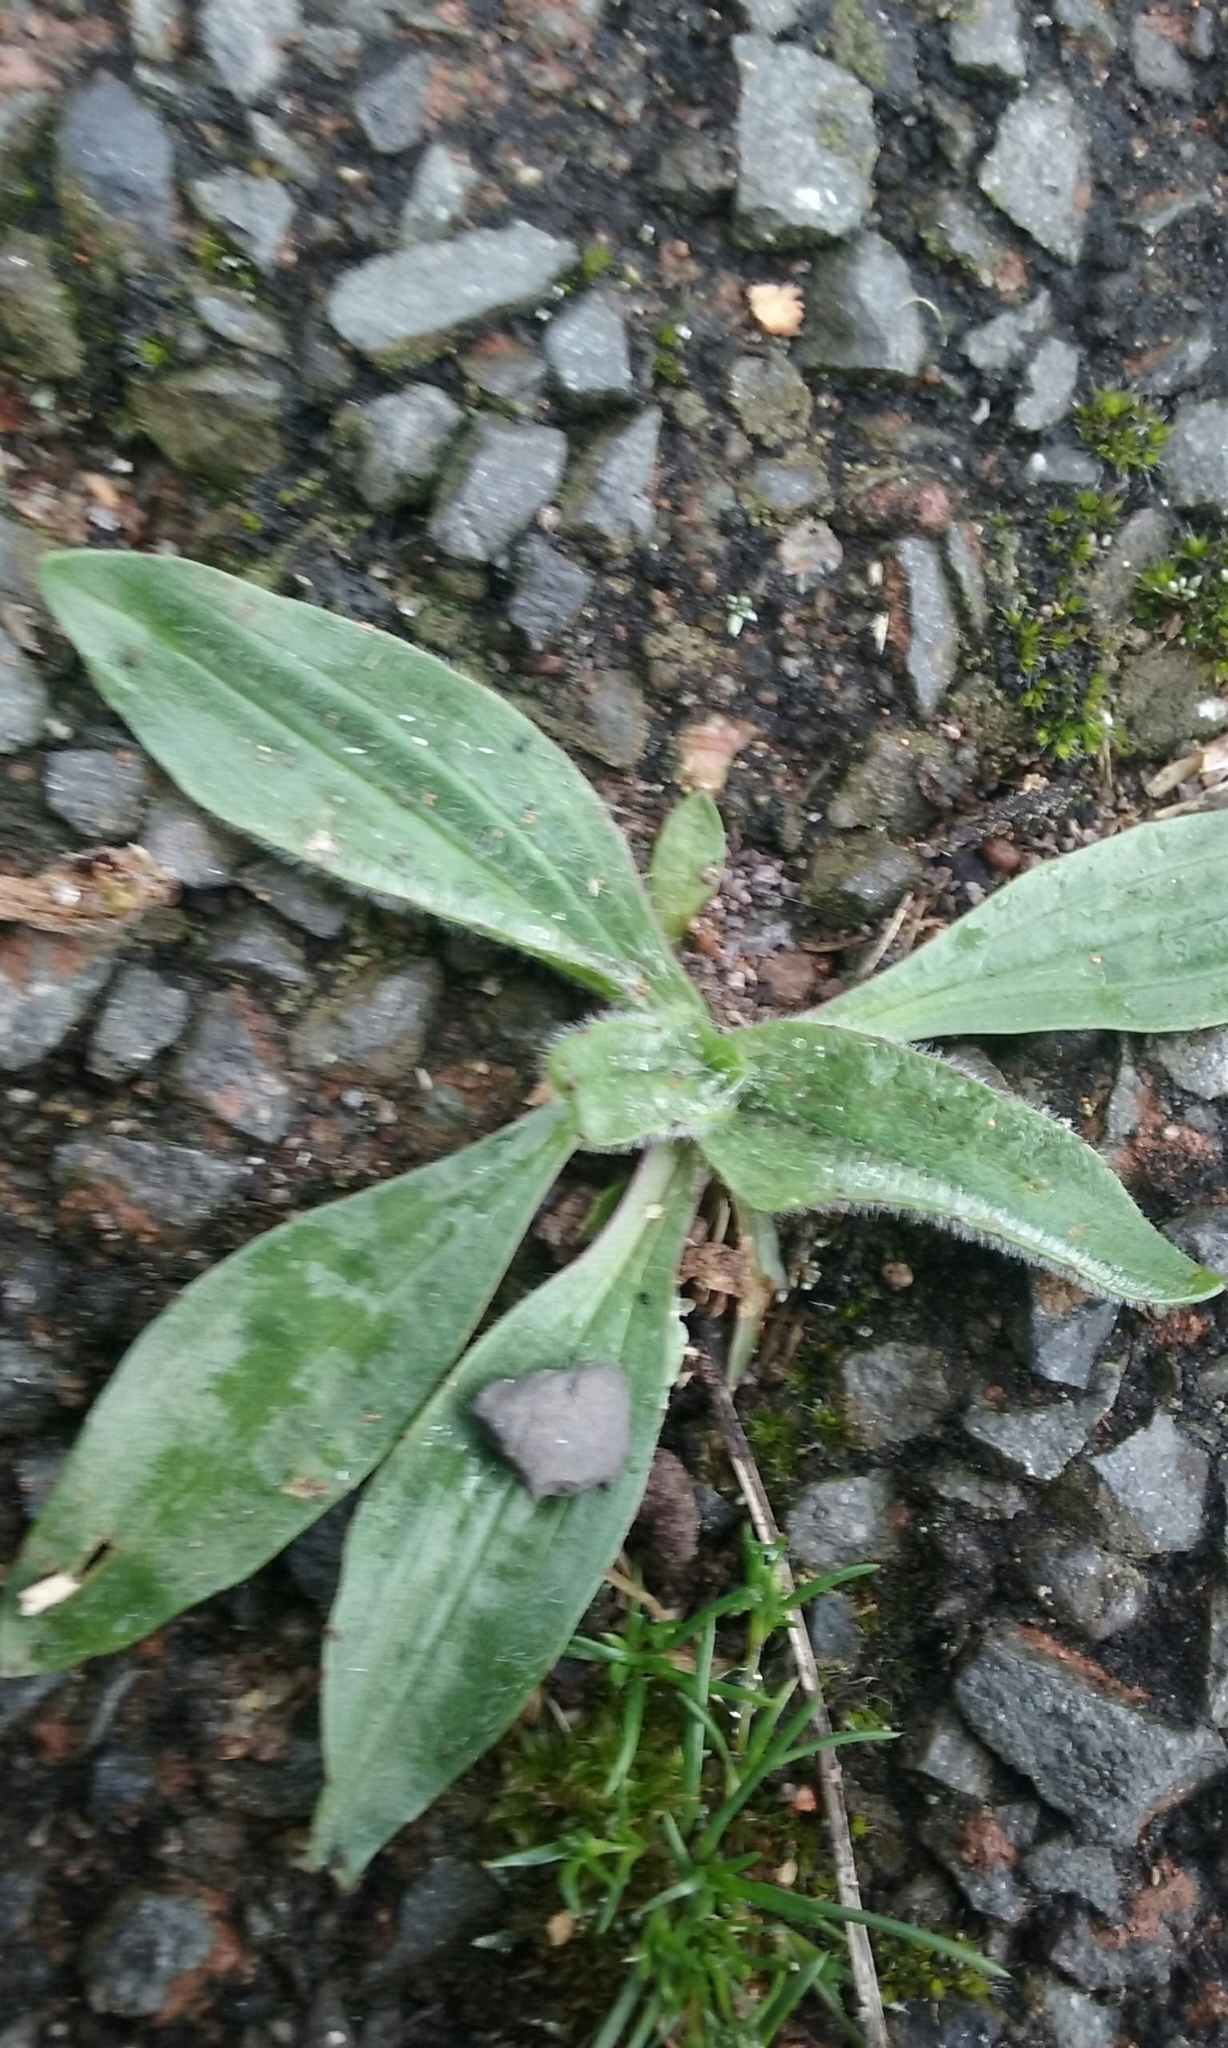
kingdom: Plantae
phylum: Tracheophyta
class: Magnoliopsida
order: Lamiales
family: Plantaginaceae
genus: Plantago
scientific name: Plantago lanceolata
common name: Ribwort plantain
